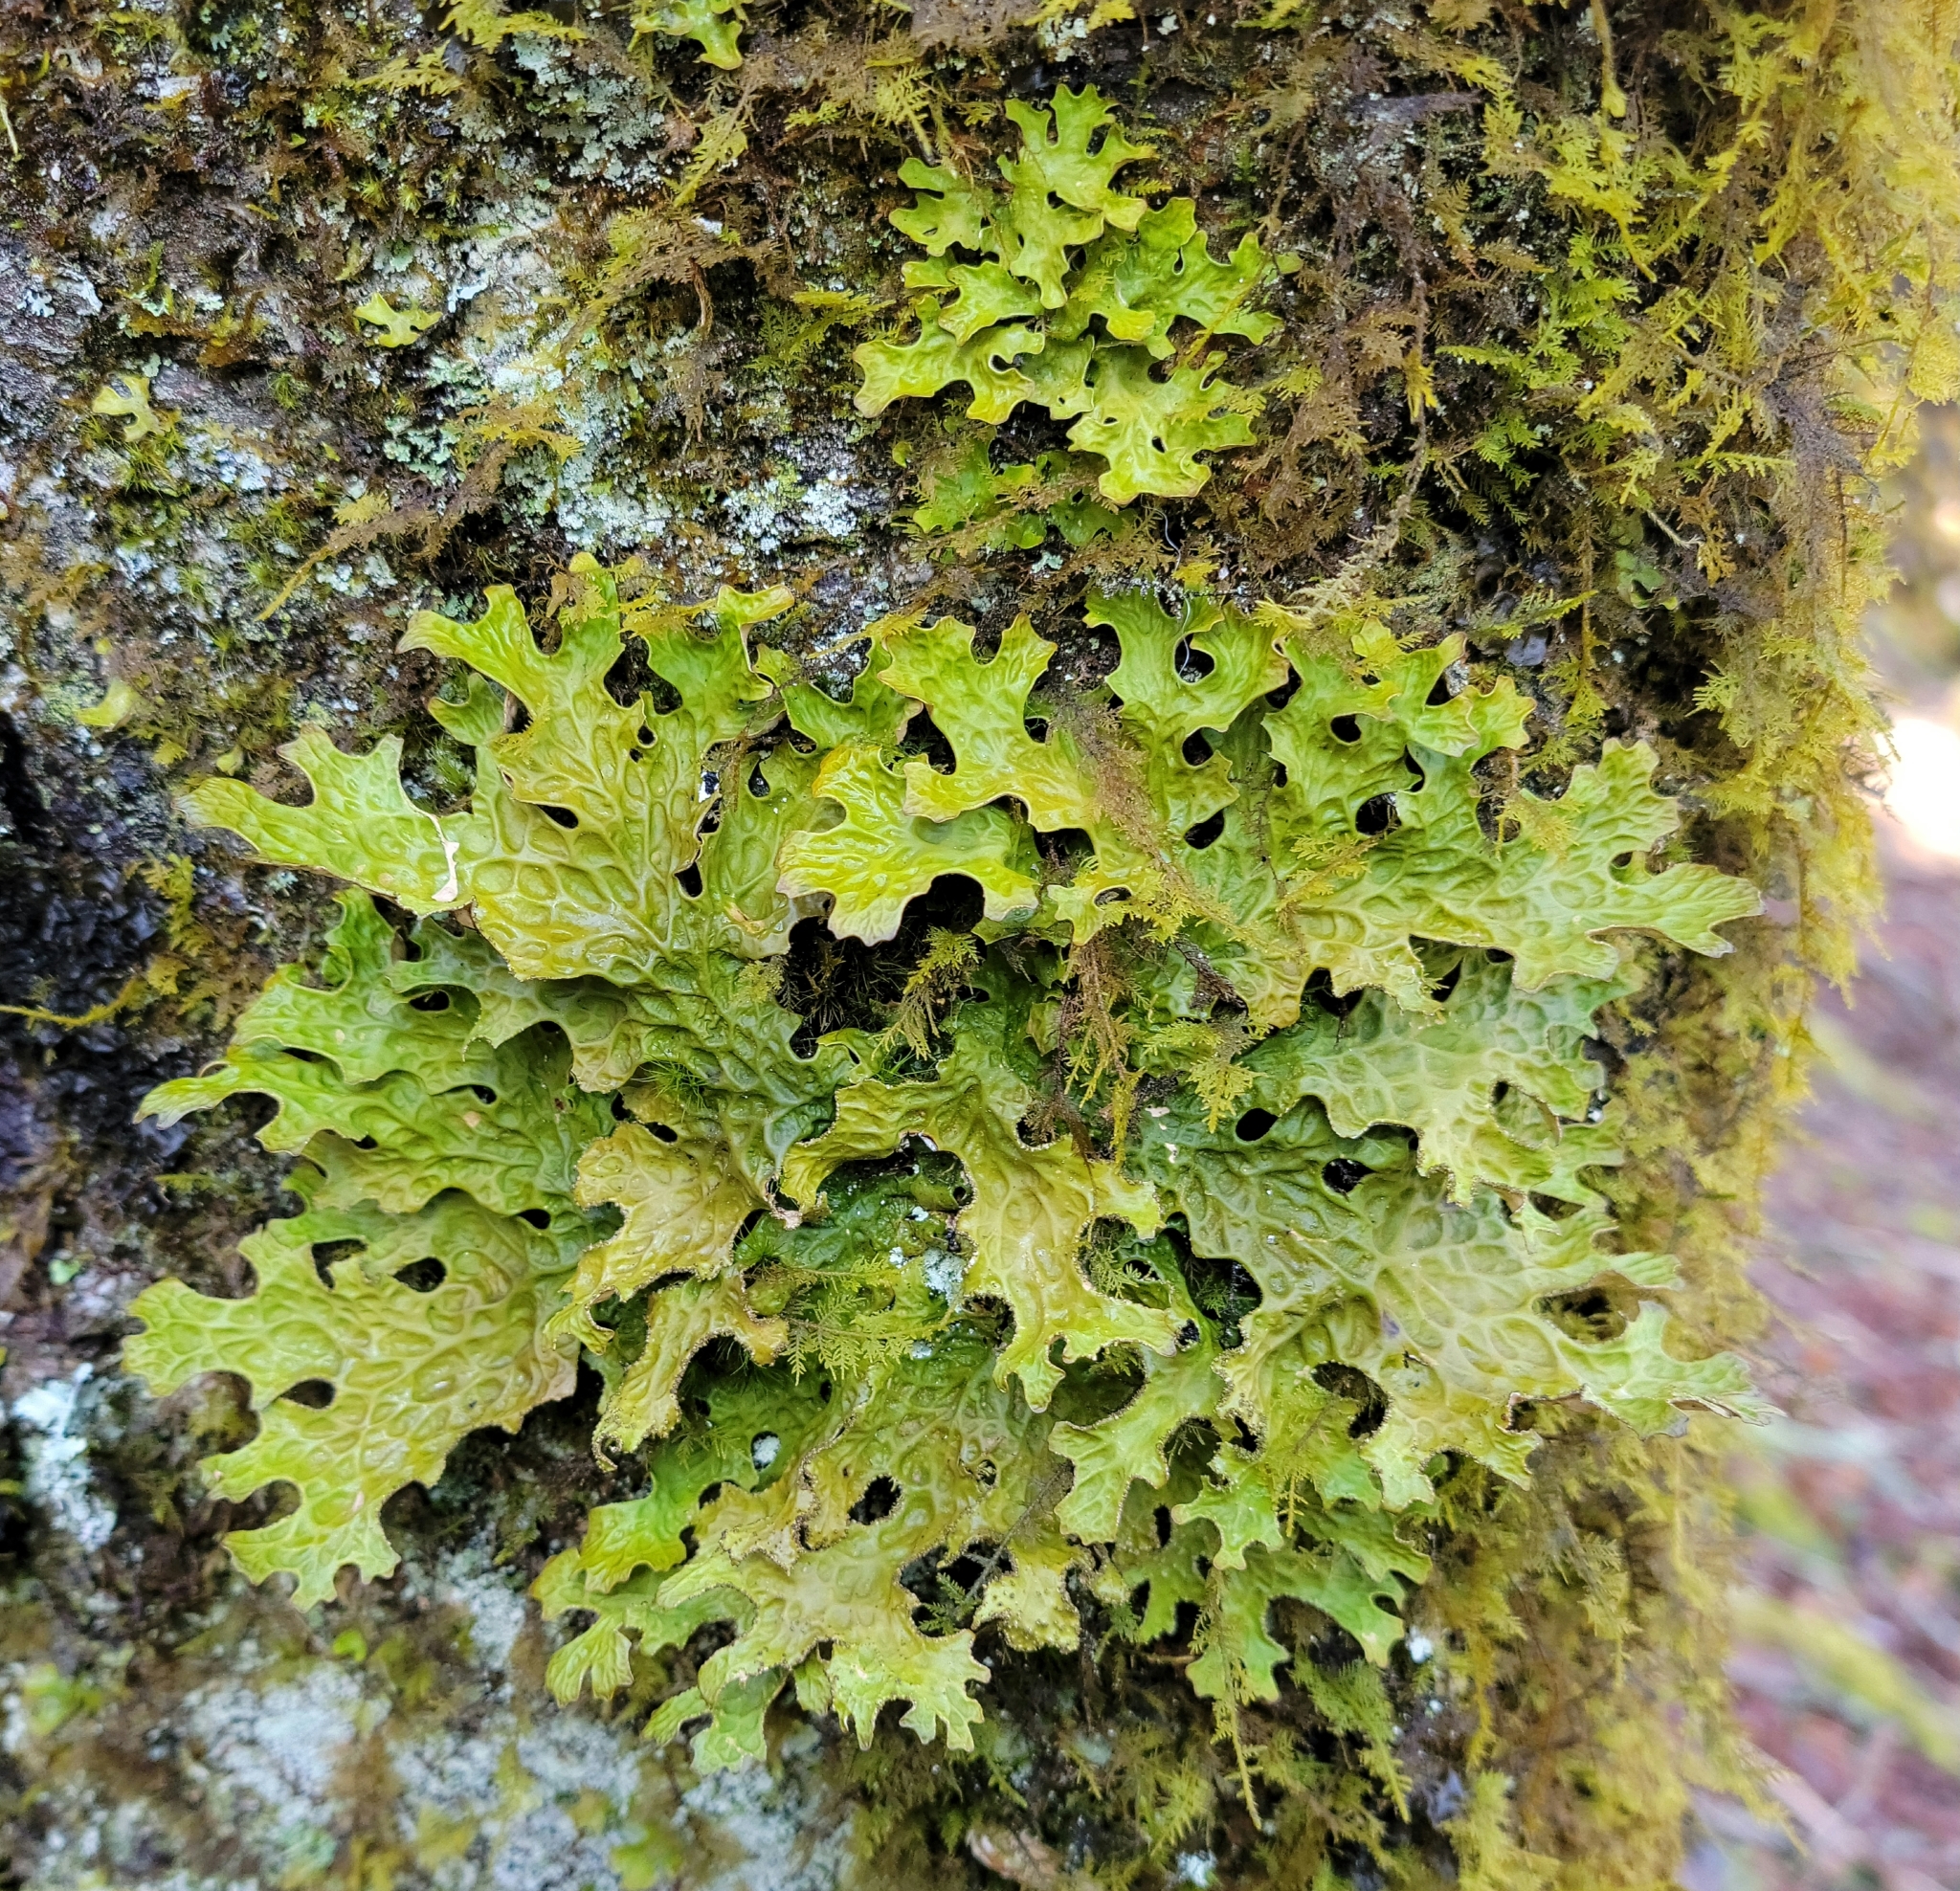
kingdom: Fungi
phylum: Ascomycota
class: Lecanoromycetes
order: Peltigerales
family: Lobariaceae
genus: Lobaria
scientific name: Lobaria pulmonaria
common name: Lungwort
